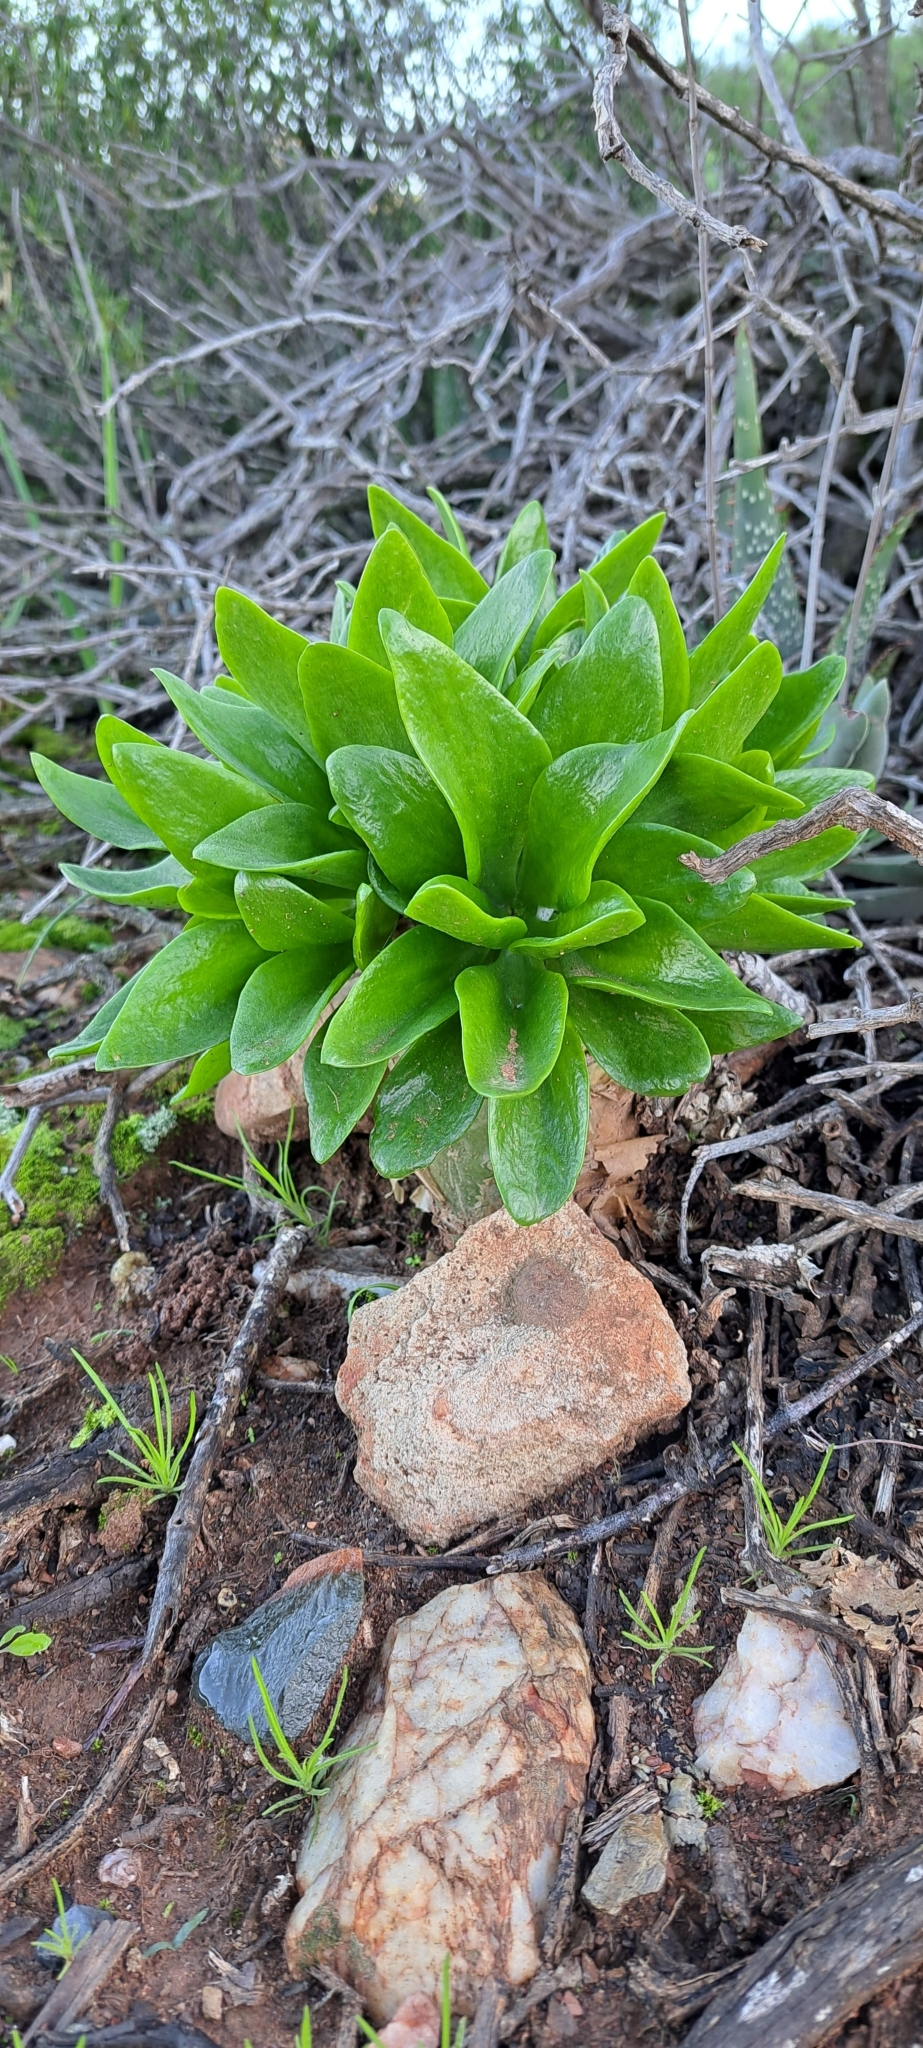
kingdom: Plantae
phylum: Tracheophyta
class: Magnoliopsida
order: Saxifragales
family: Crassulaceae
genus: Tylecodon
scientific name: Tylecodon paniculatus
